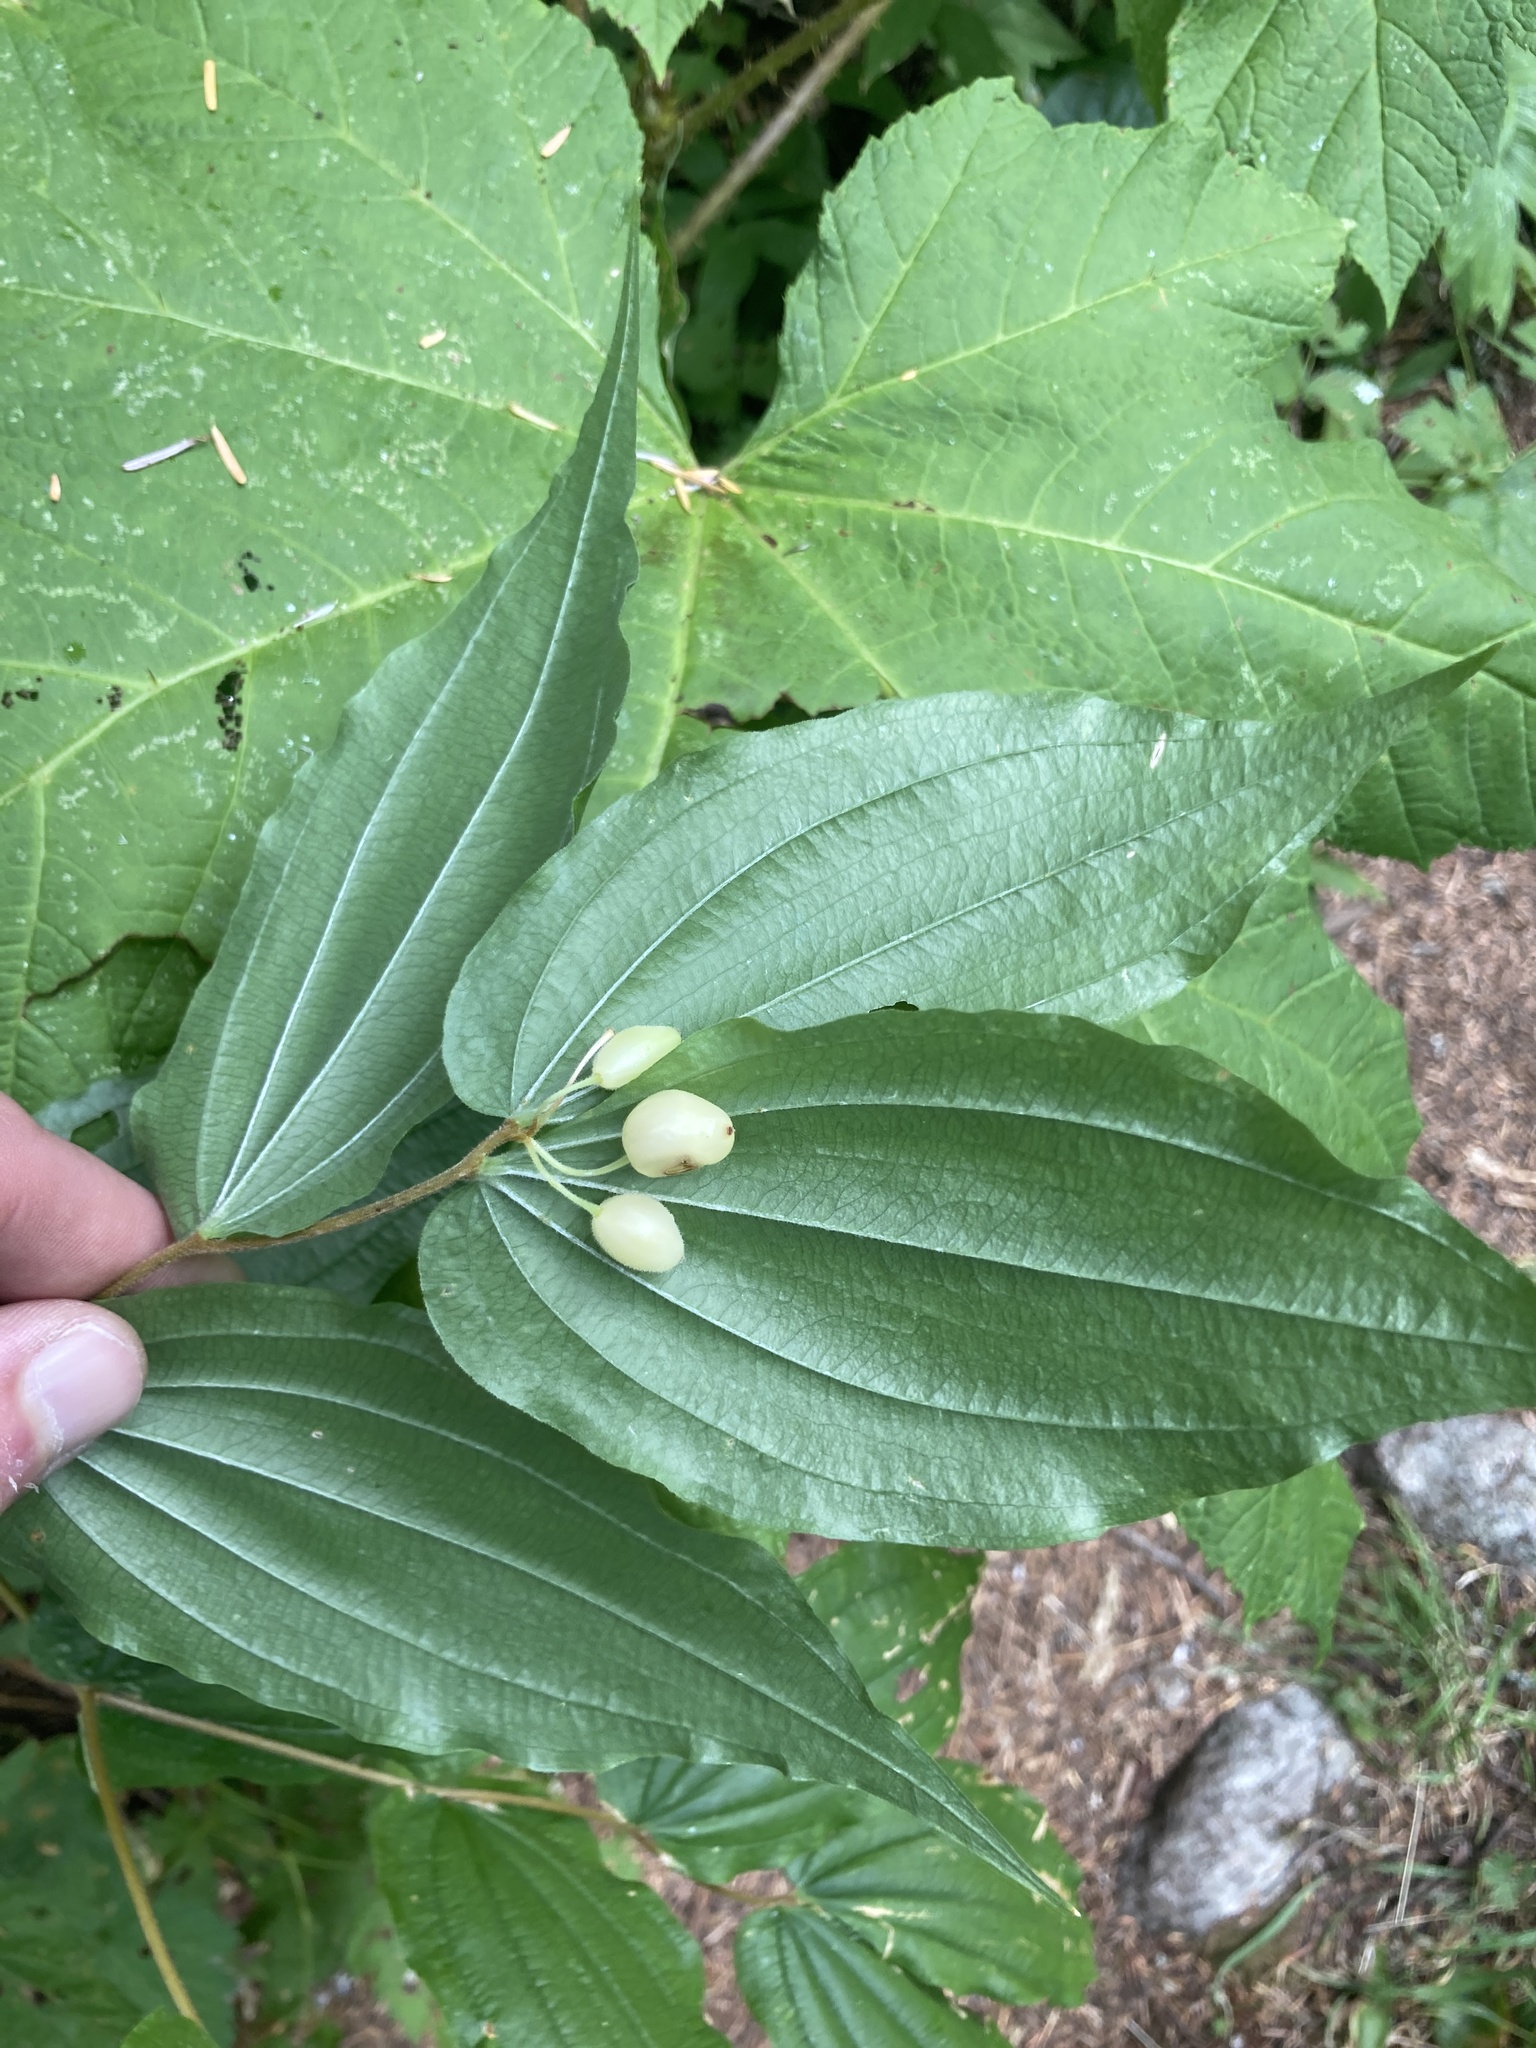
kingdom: Plantae
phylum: Tracheophyta
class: Liliopsida
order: Liliales
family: Liliaceae
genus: Prosartes
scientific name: Prosartes hookeri
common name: Fairy-bells
